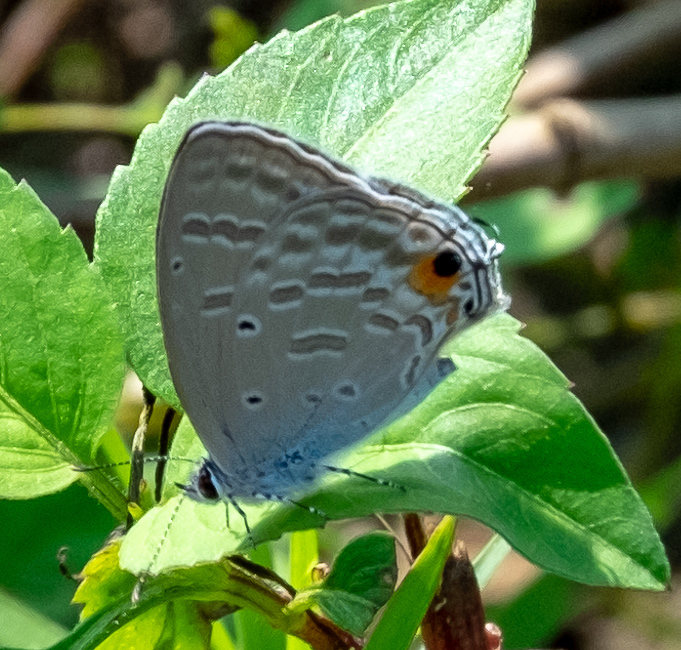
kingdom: Animalia
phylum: Arthropoda
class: Insecta
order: Lepidoptera
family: Lycaenidae
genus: Catochrysops
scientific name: Catochrysops strabo
